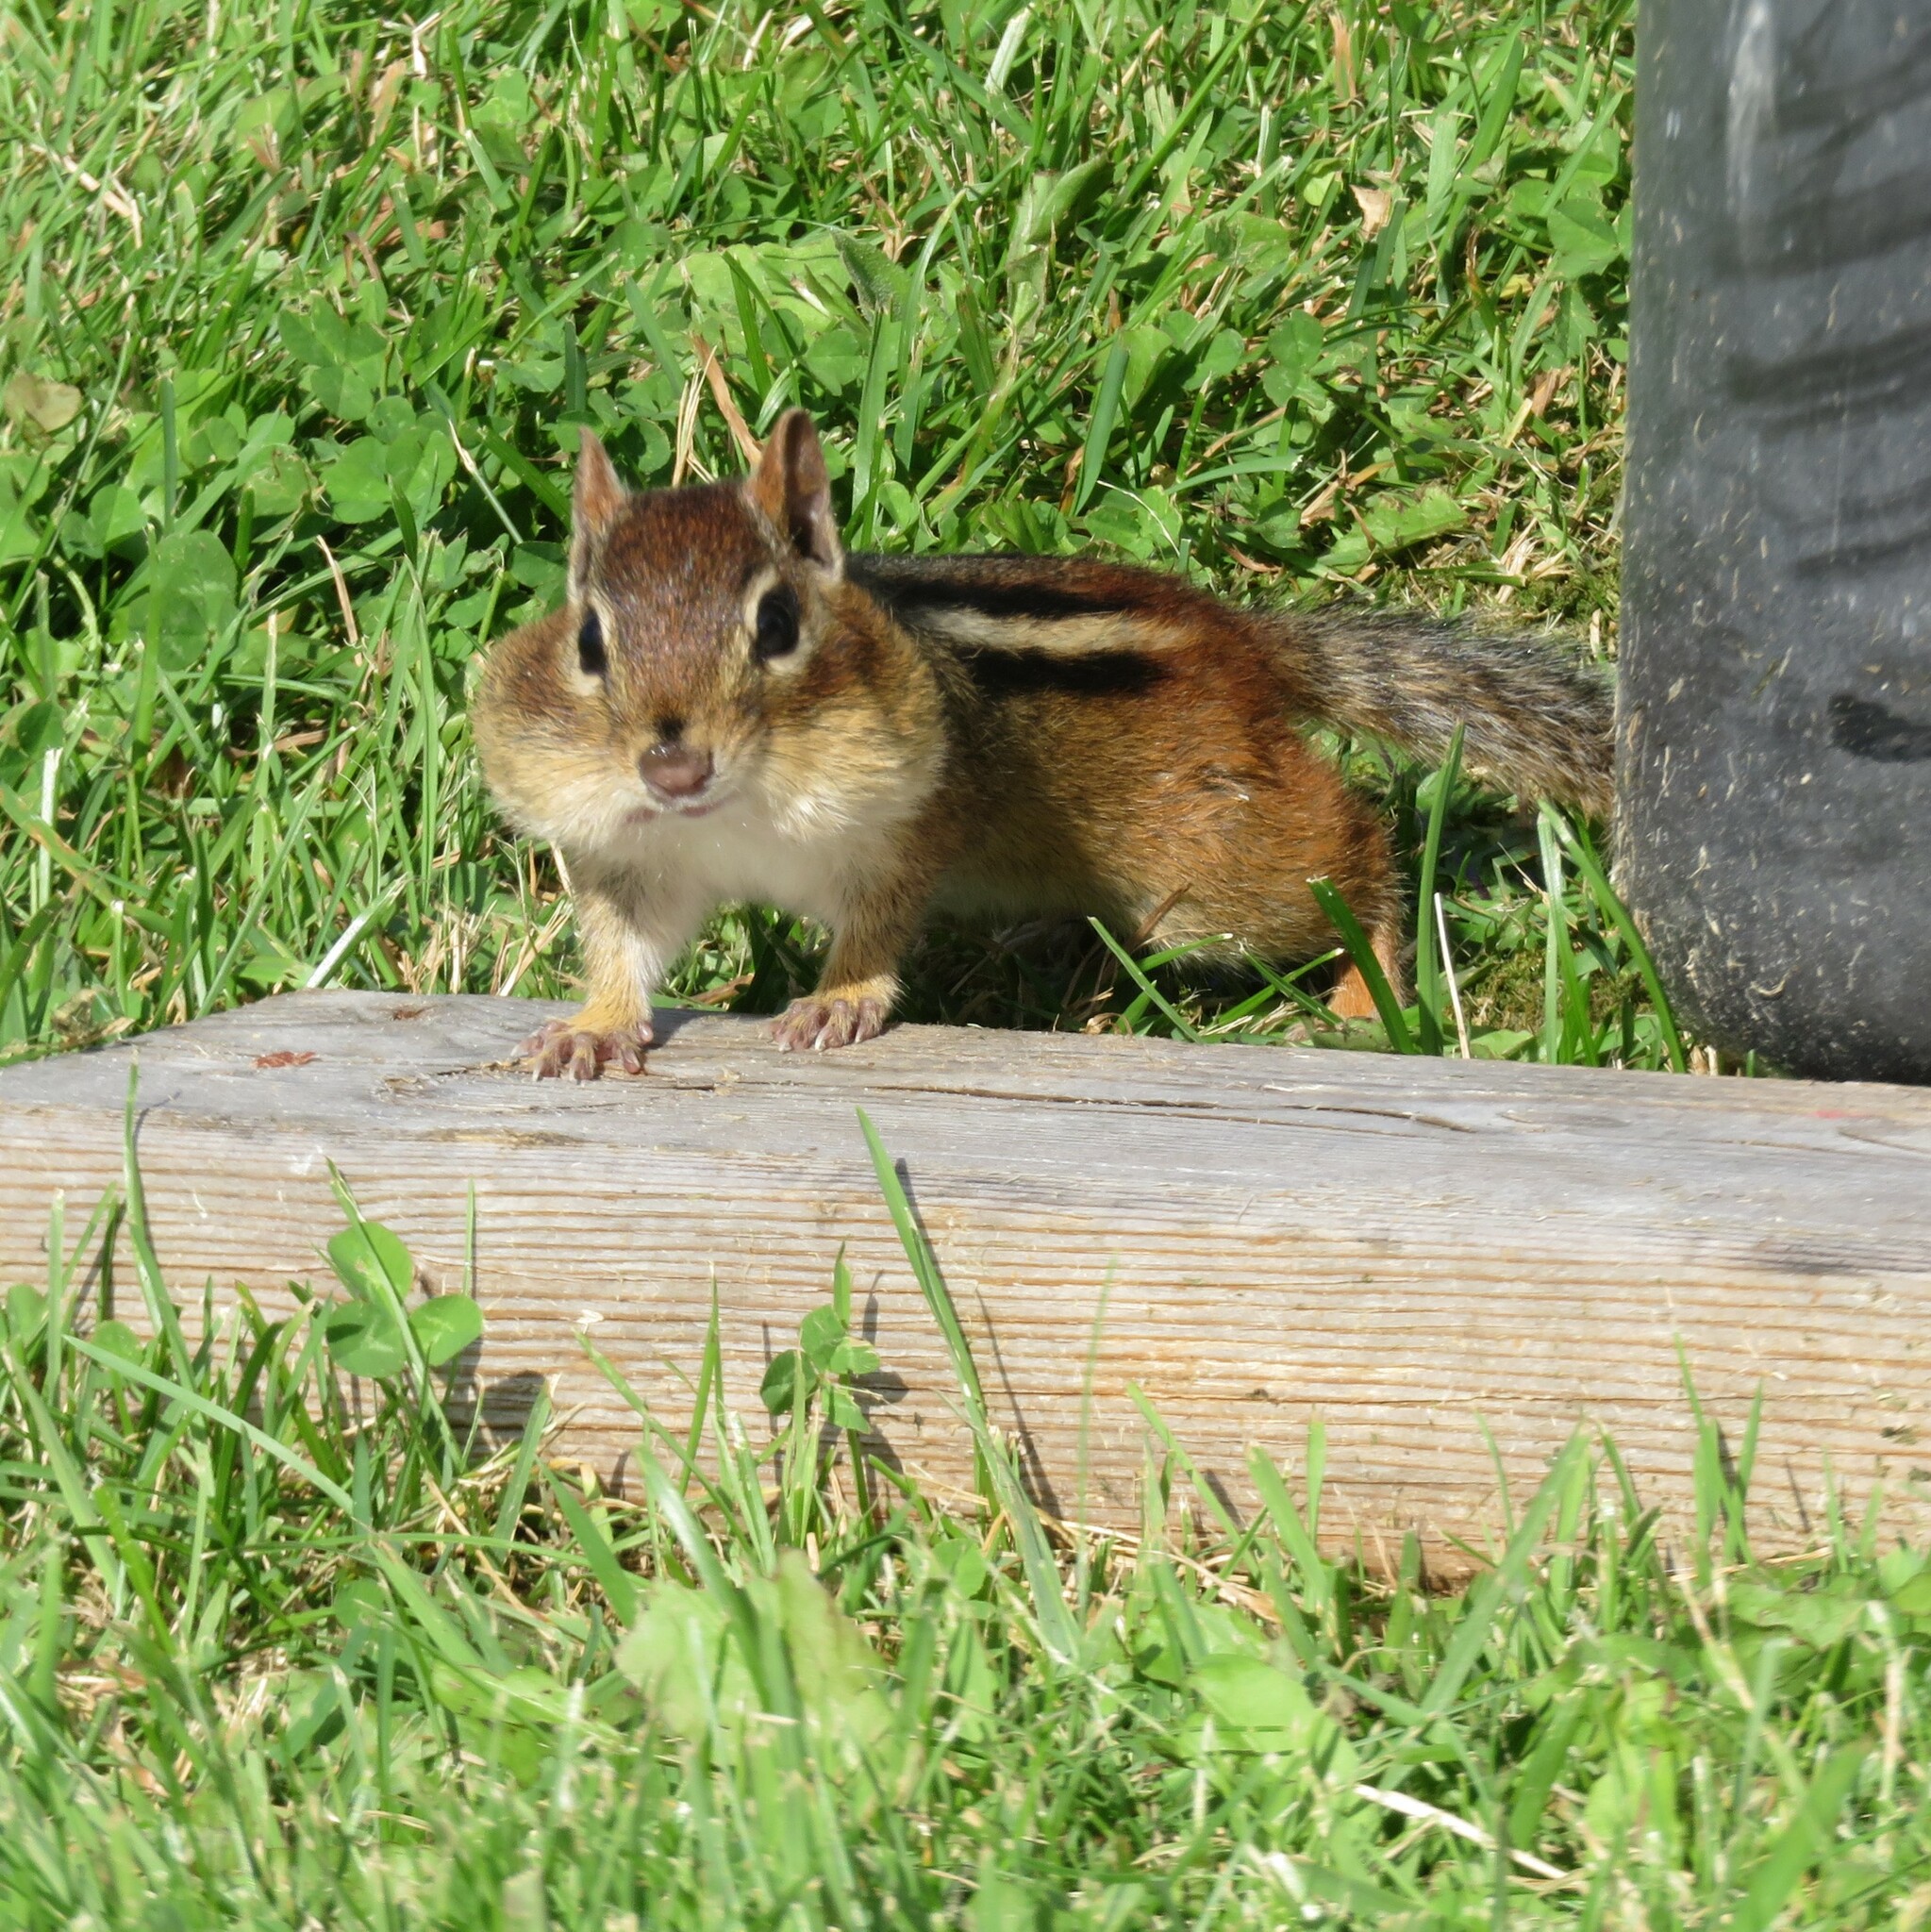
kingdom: Animalia
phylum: Chordata
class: Mammalia
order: Rodentia
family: Sciuridae
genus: Tamias
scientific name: Tamias striatus
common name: Eastern chipmunk
